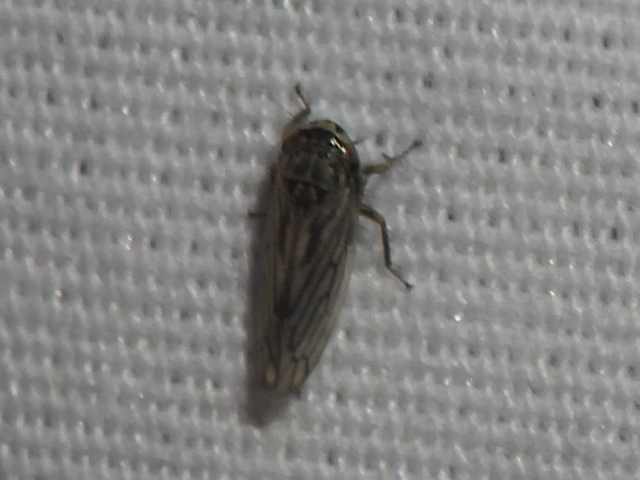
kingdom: Animalia
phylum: Arthropoda
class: Insecta
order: Hemiptera
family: Cicadellidae
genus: Exitianus
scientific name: Exitianus exitiosus
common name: Gray lawn leafhopper
